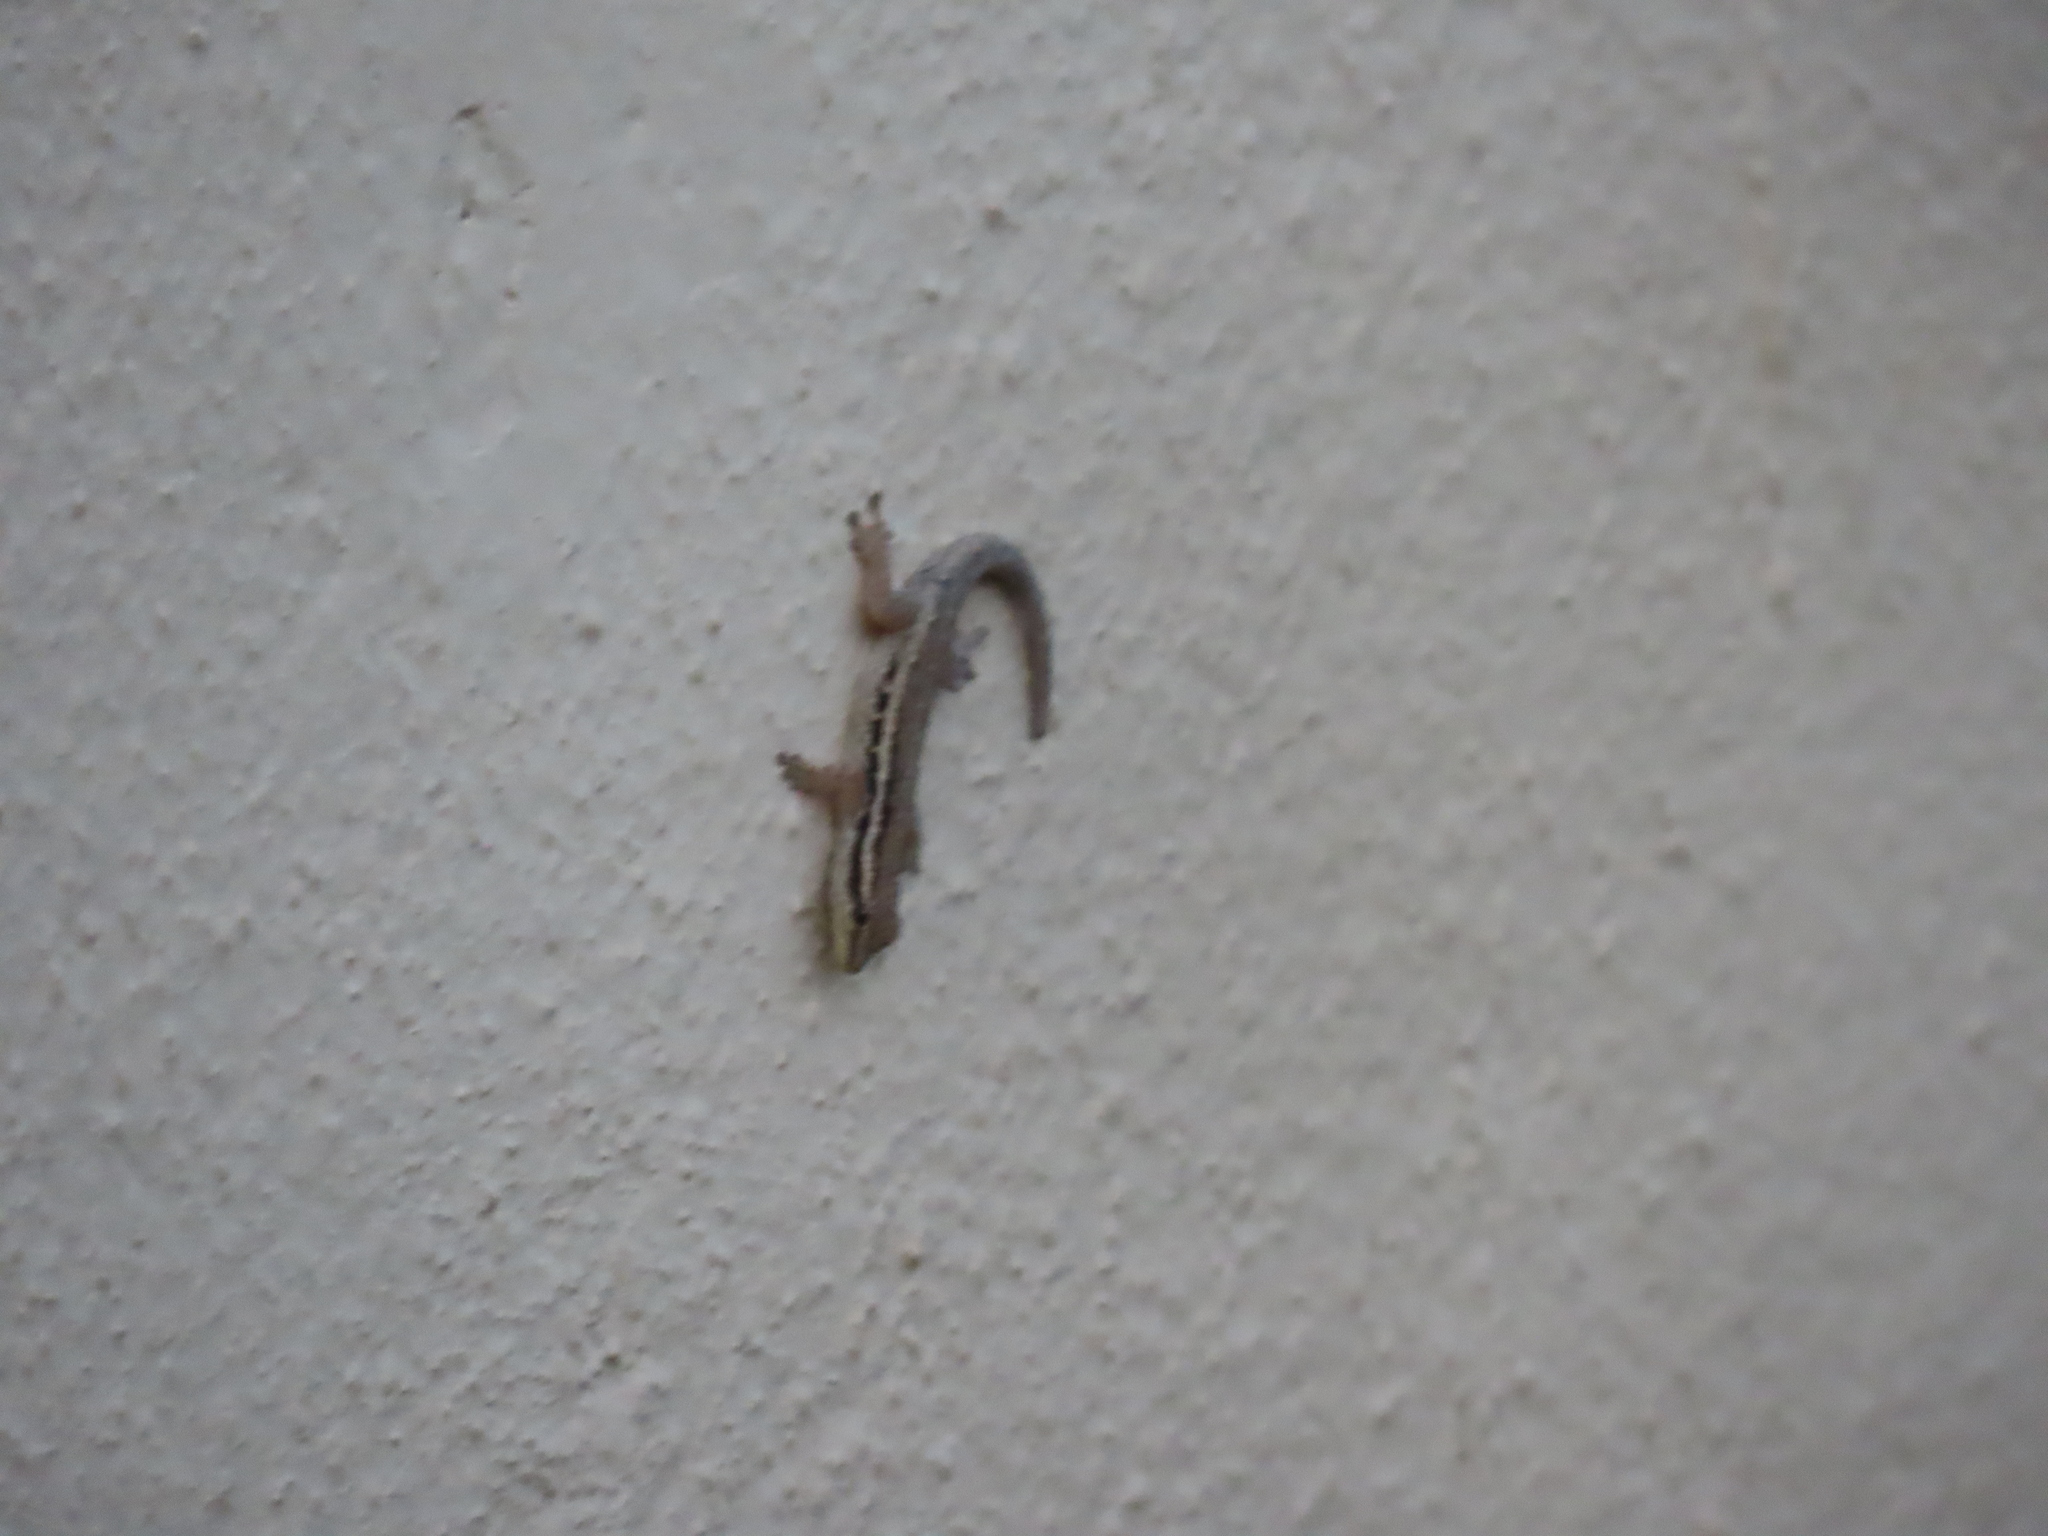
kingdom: Animalia
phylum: Chordata
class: Squamata
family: Gekkonidae
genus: Lygodactylus
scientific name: Lygodactylus capensis
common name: Cape dwarf gecko
